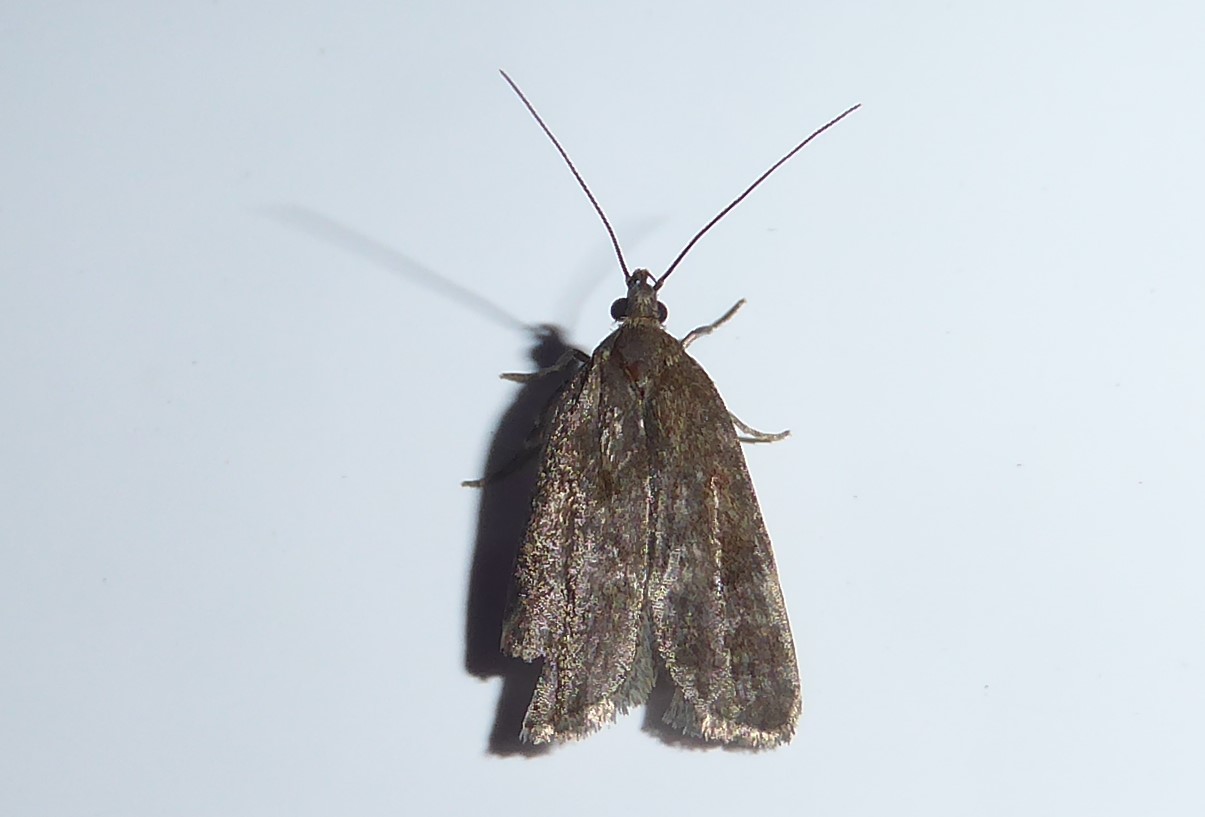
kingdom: Animalia
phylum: Arthropoda
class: Insecta
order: Lepidoptera
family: Depressariidae
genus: Phaeosaces
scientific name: Phaeosaces apocrypta
